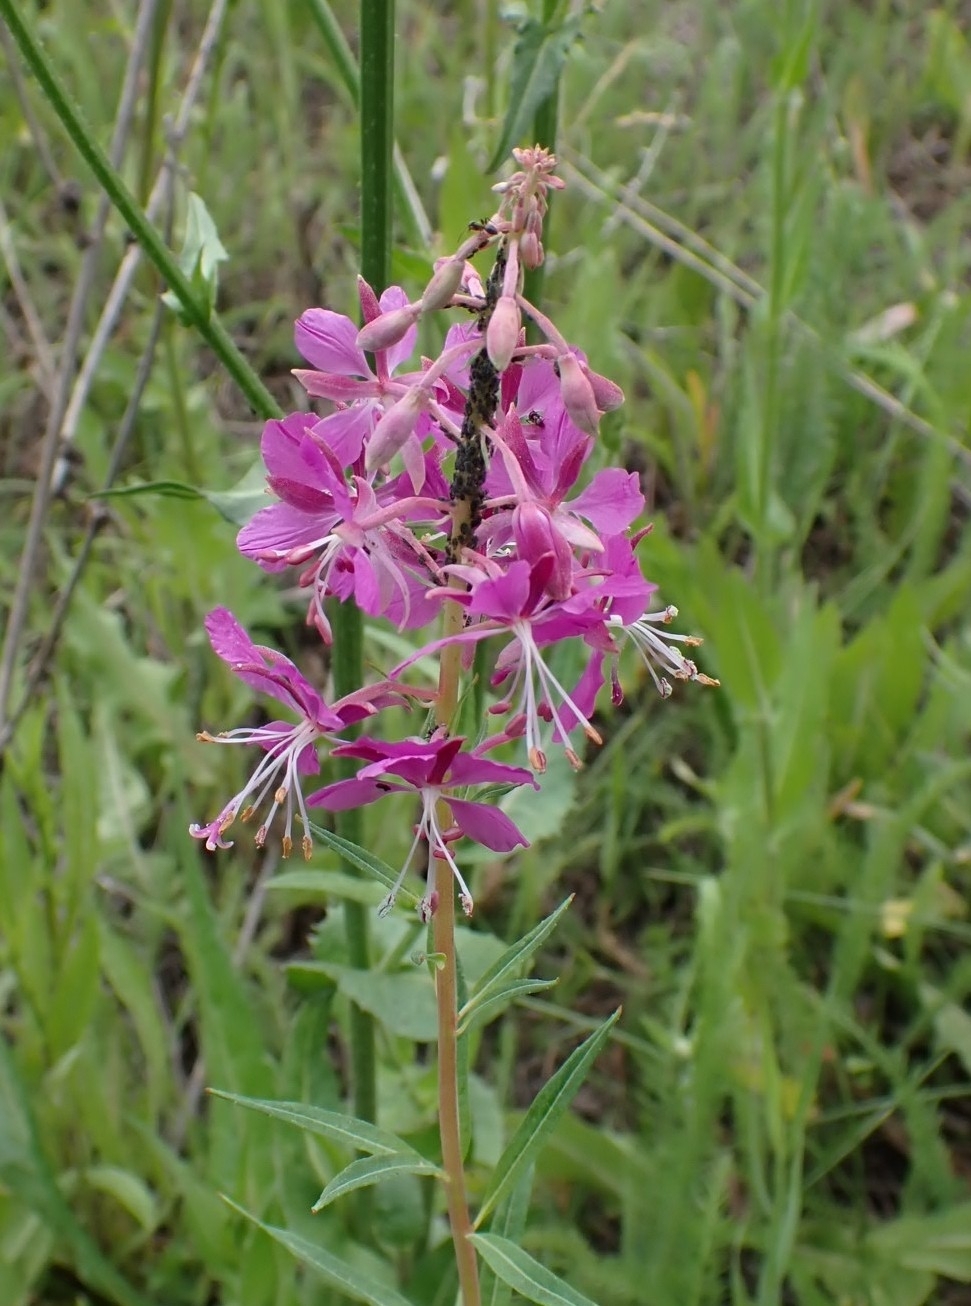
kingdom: Plantae
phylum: Tracheophyta
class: Magnoliopsida
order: Myrtales
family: Onagraceae
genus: Chamaenerion
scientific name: Chamaenerion angustifolium
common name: Fireweed
